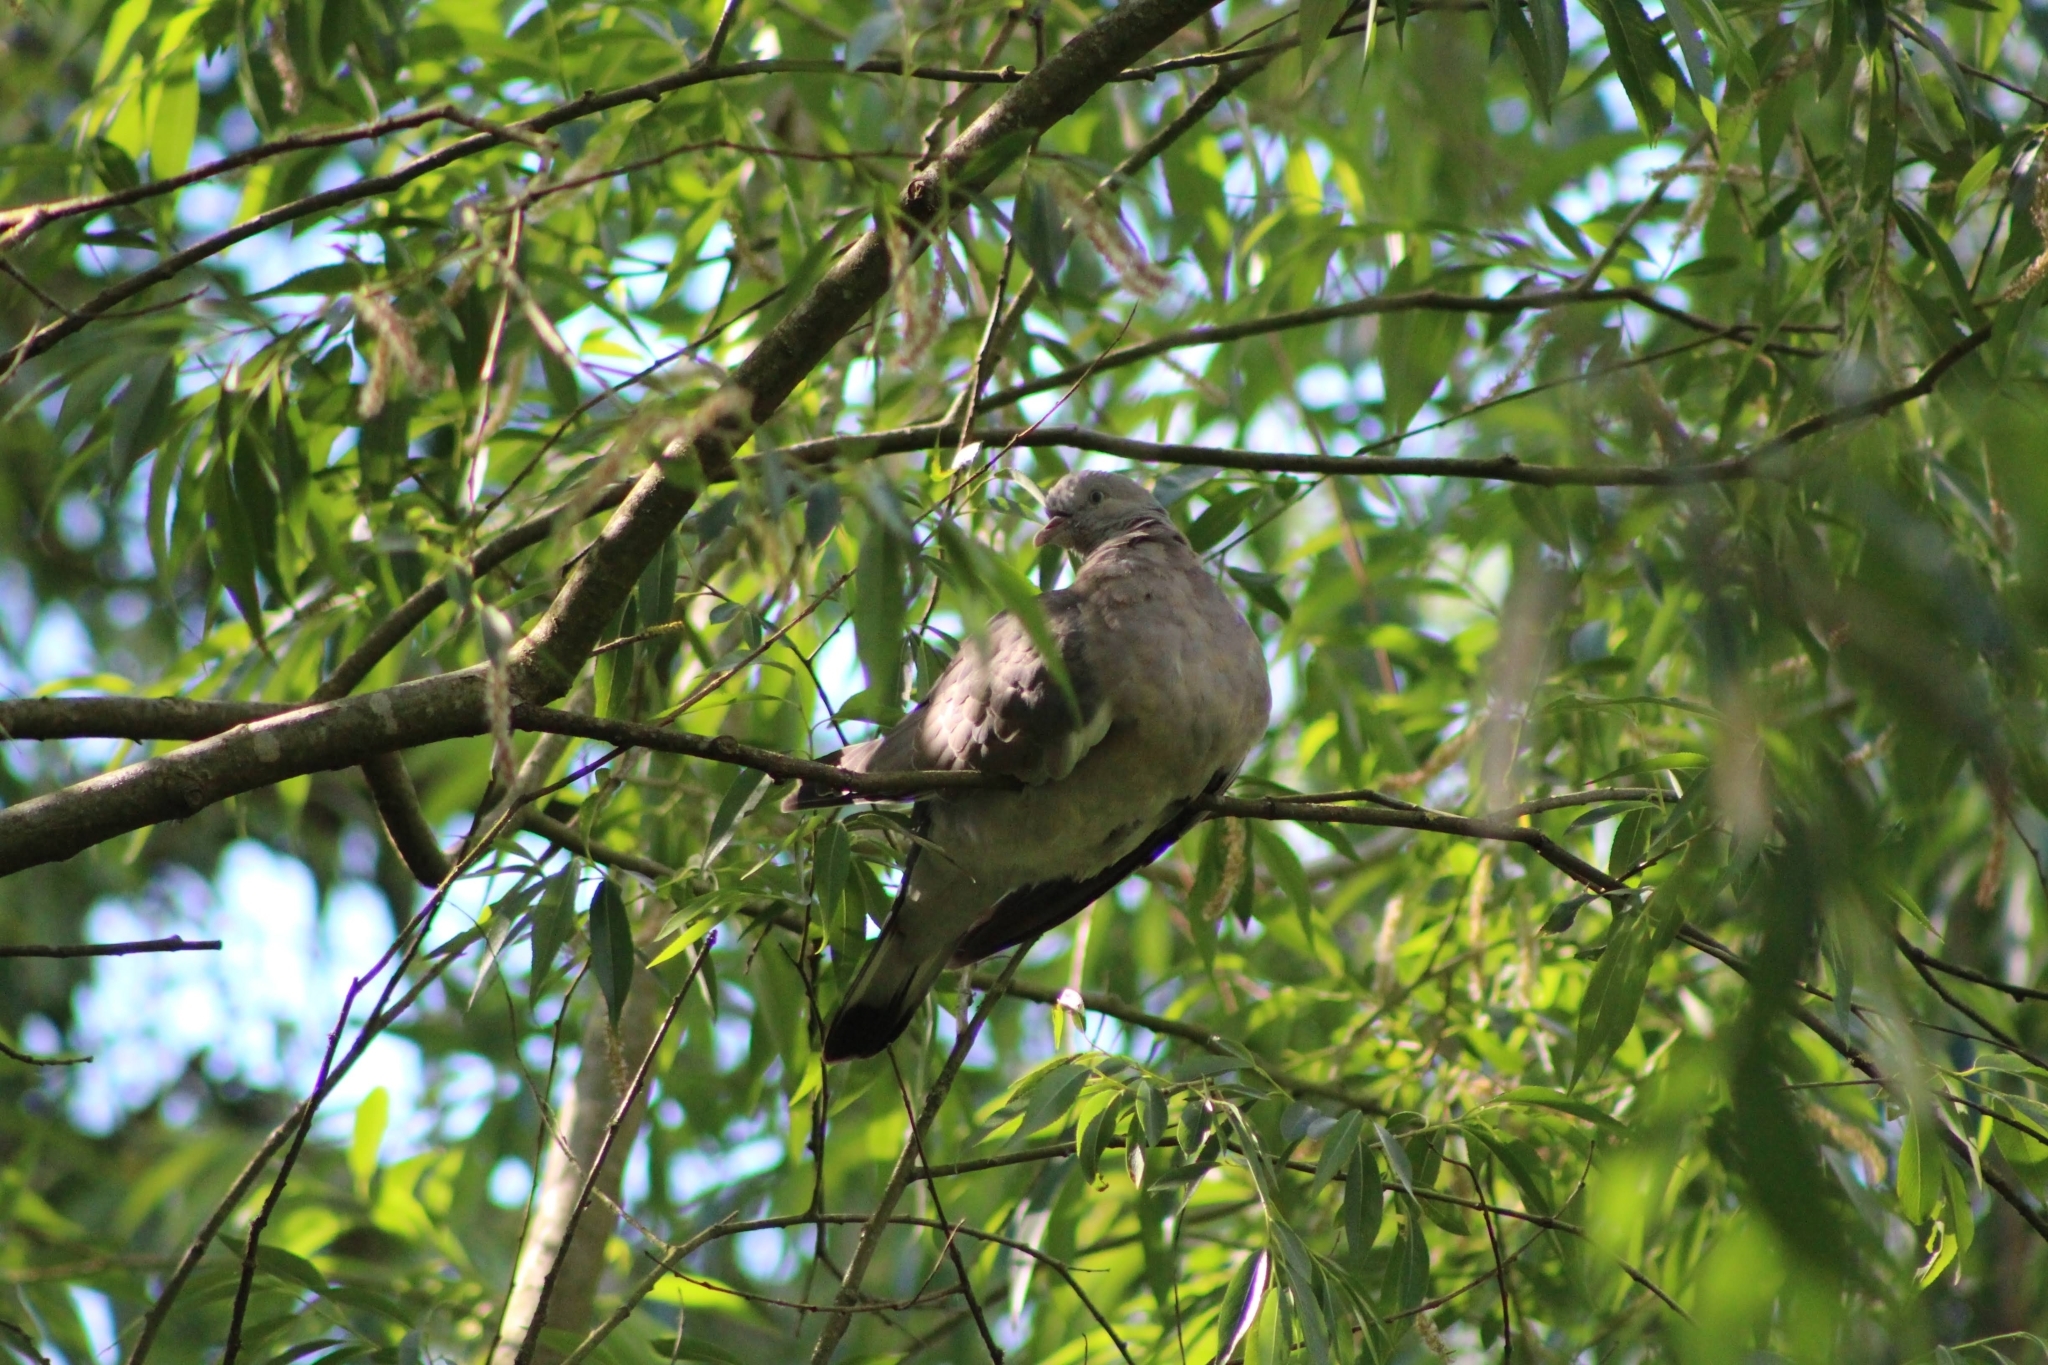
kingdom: Animalia
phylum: Chordata
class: Aves
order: Columbiformes
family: Columbidae
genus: Columba
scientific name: Columba palumbus
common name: Common wood pigeon
